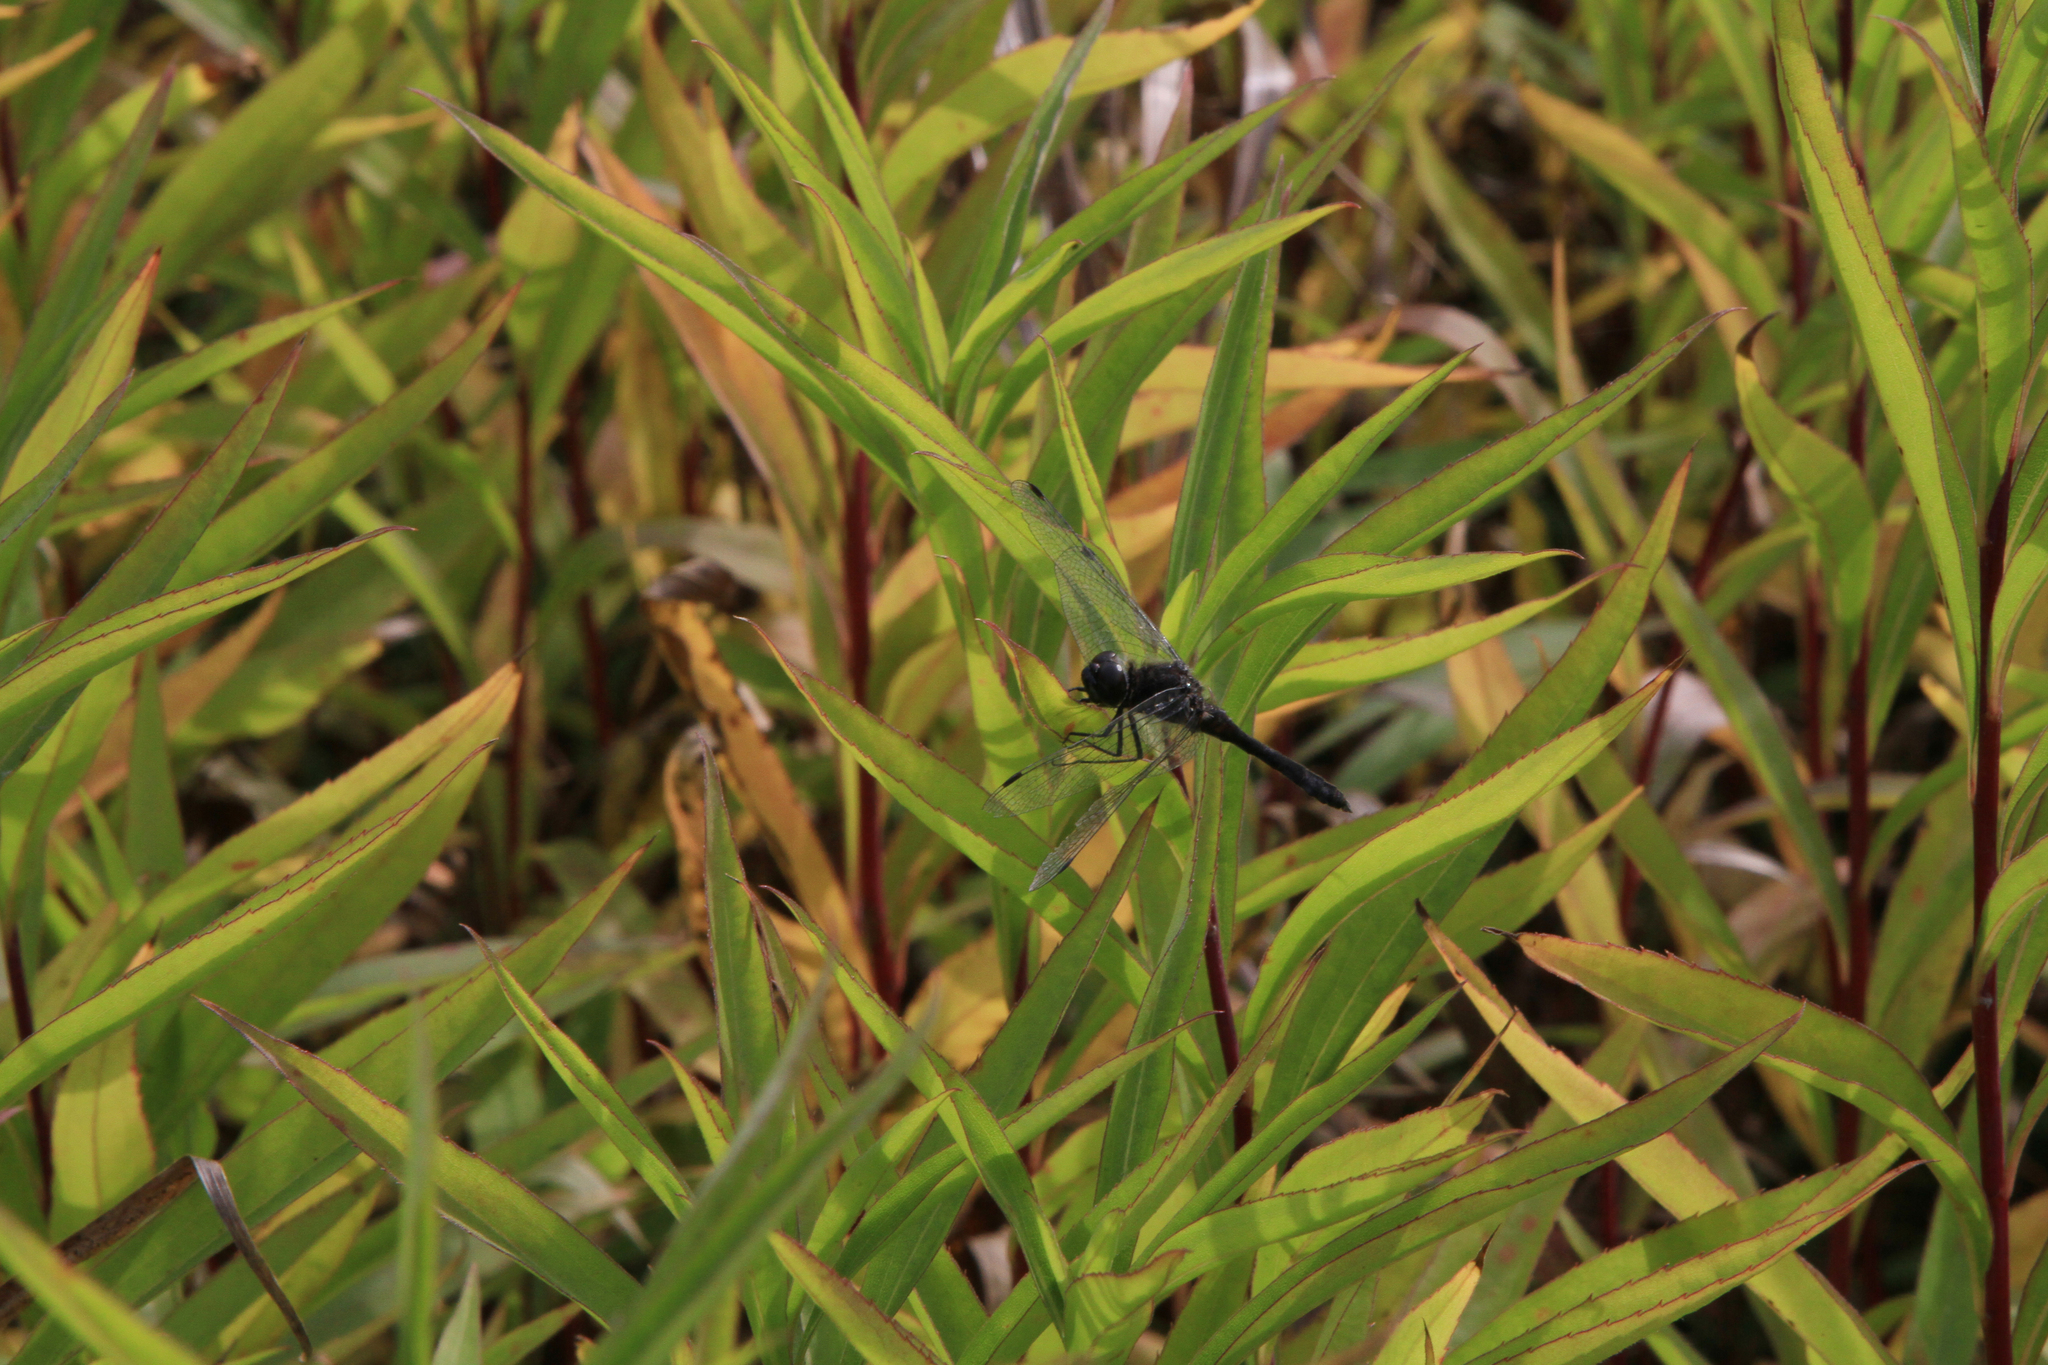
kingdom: Animalia
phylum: Arthropoda
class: Insecta
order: Odonata
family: Libellulidae
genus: Sympetrum
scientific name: Sympetrum danae
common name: Black darter
